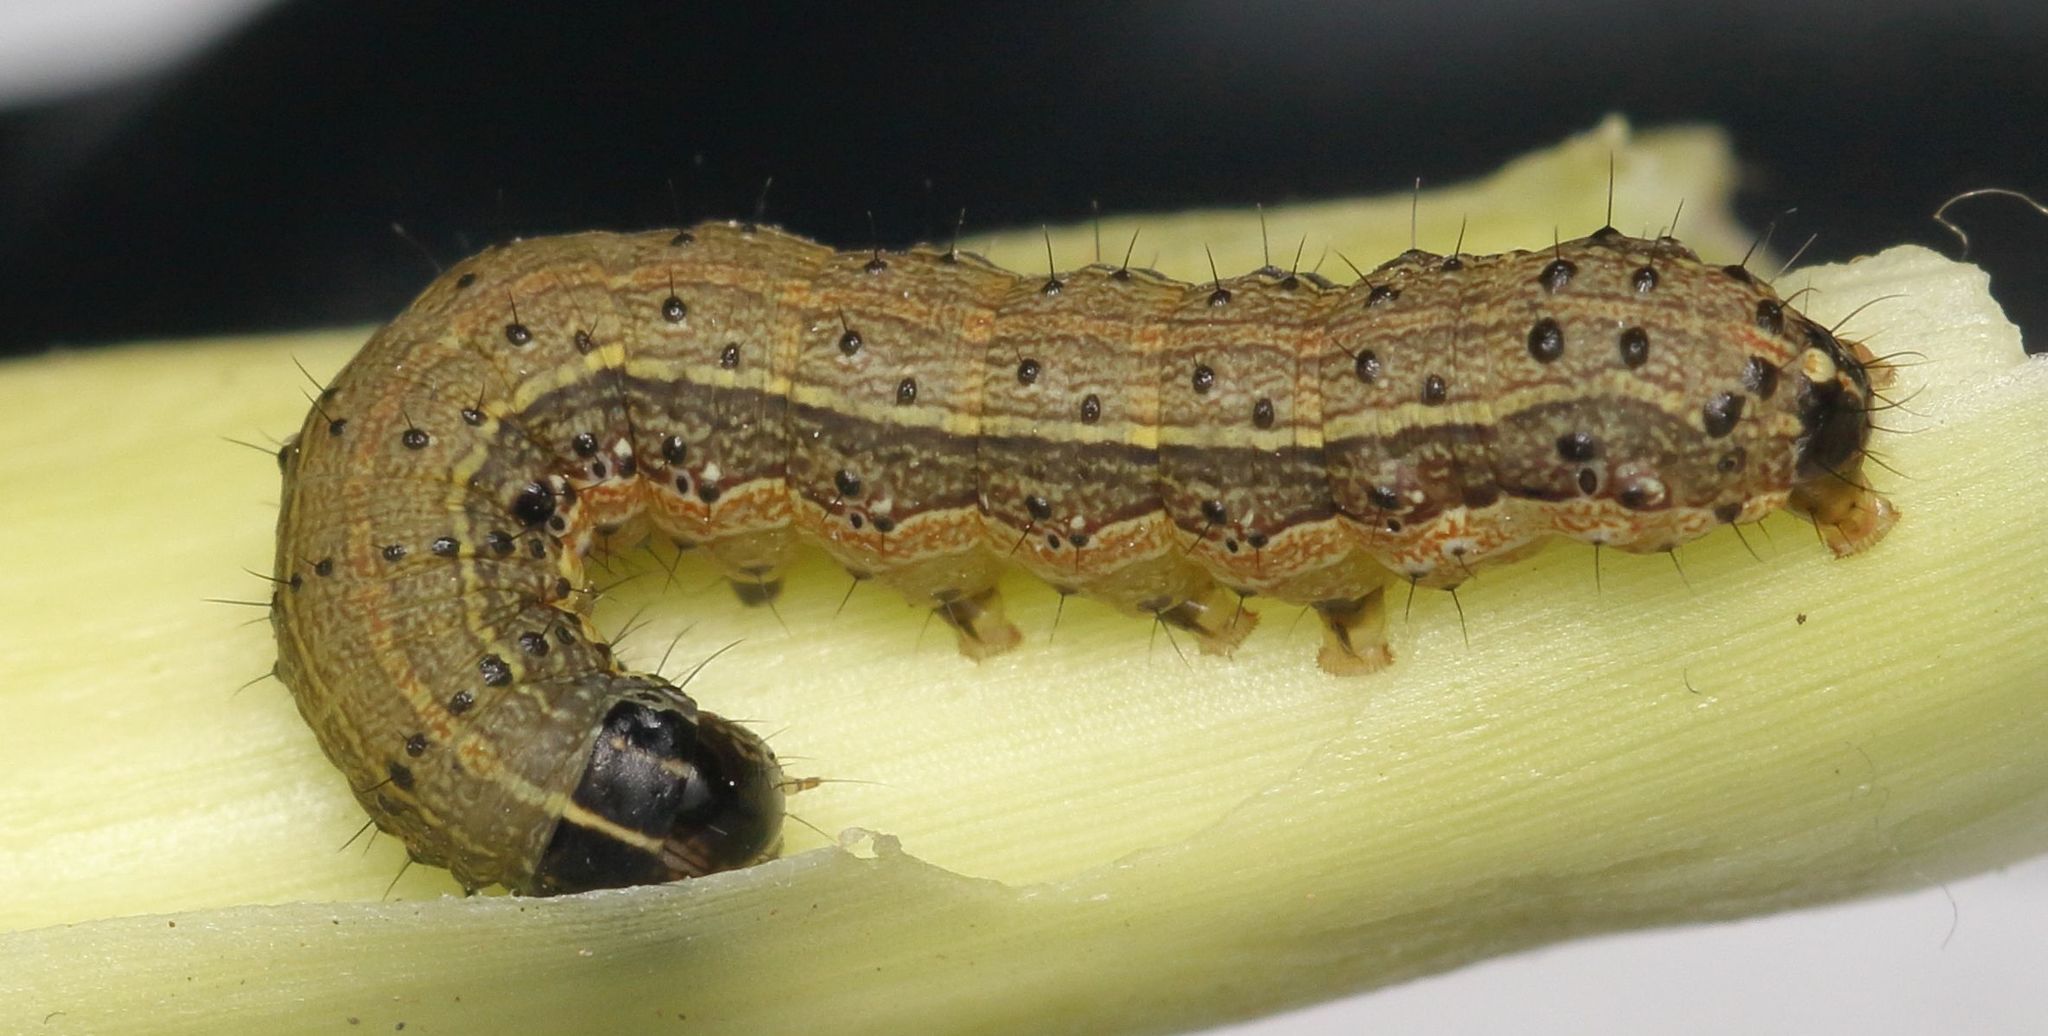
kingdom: Animalia
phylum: Arthropoda
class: Insecta
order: Lepidoptera
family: Noctuidae
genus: Spodoptera
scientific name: Spodoptera frugiperda
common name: Fall armyworm
